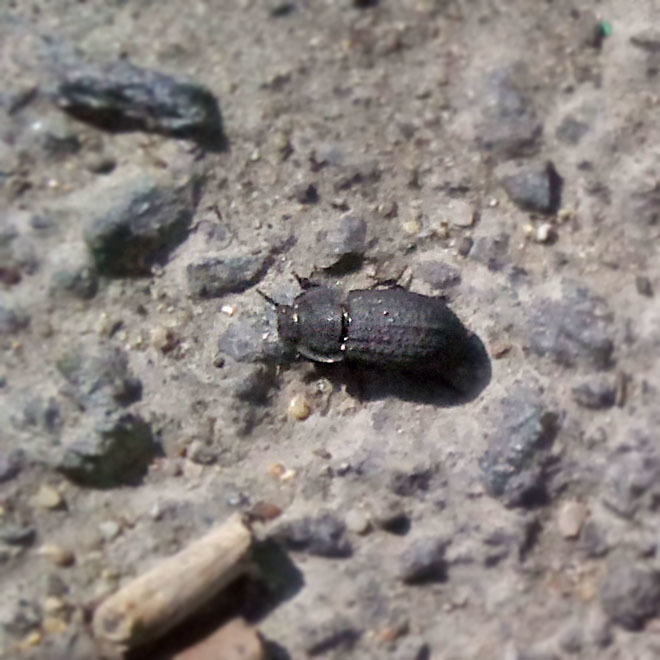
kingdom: Animalia
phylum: Arthropoda
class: Insecta
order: Coleoptera
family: Tenebrionidae
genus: Opatrum
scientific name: Opatrum sabulosum
